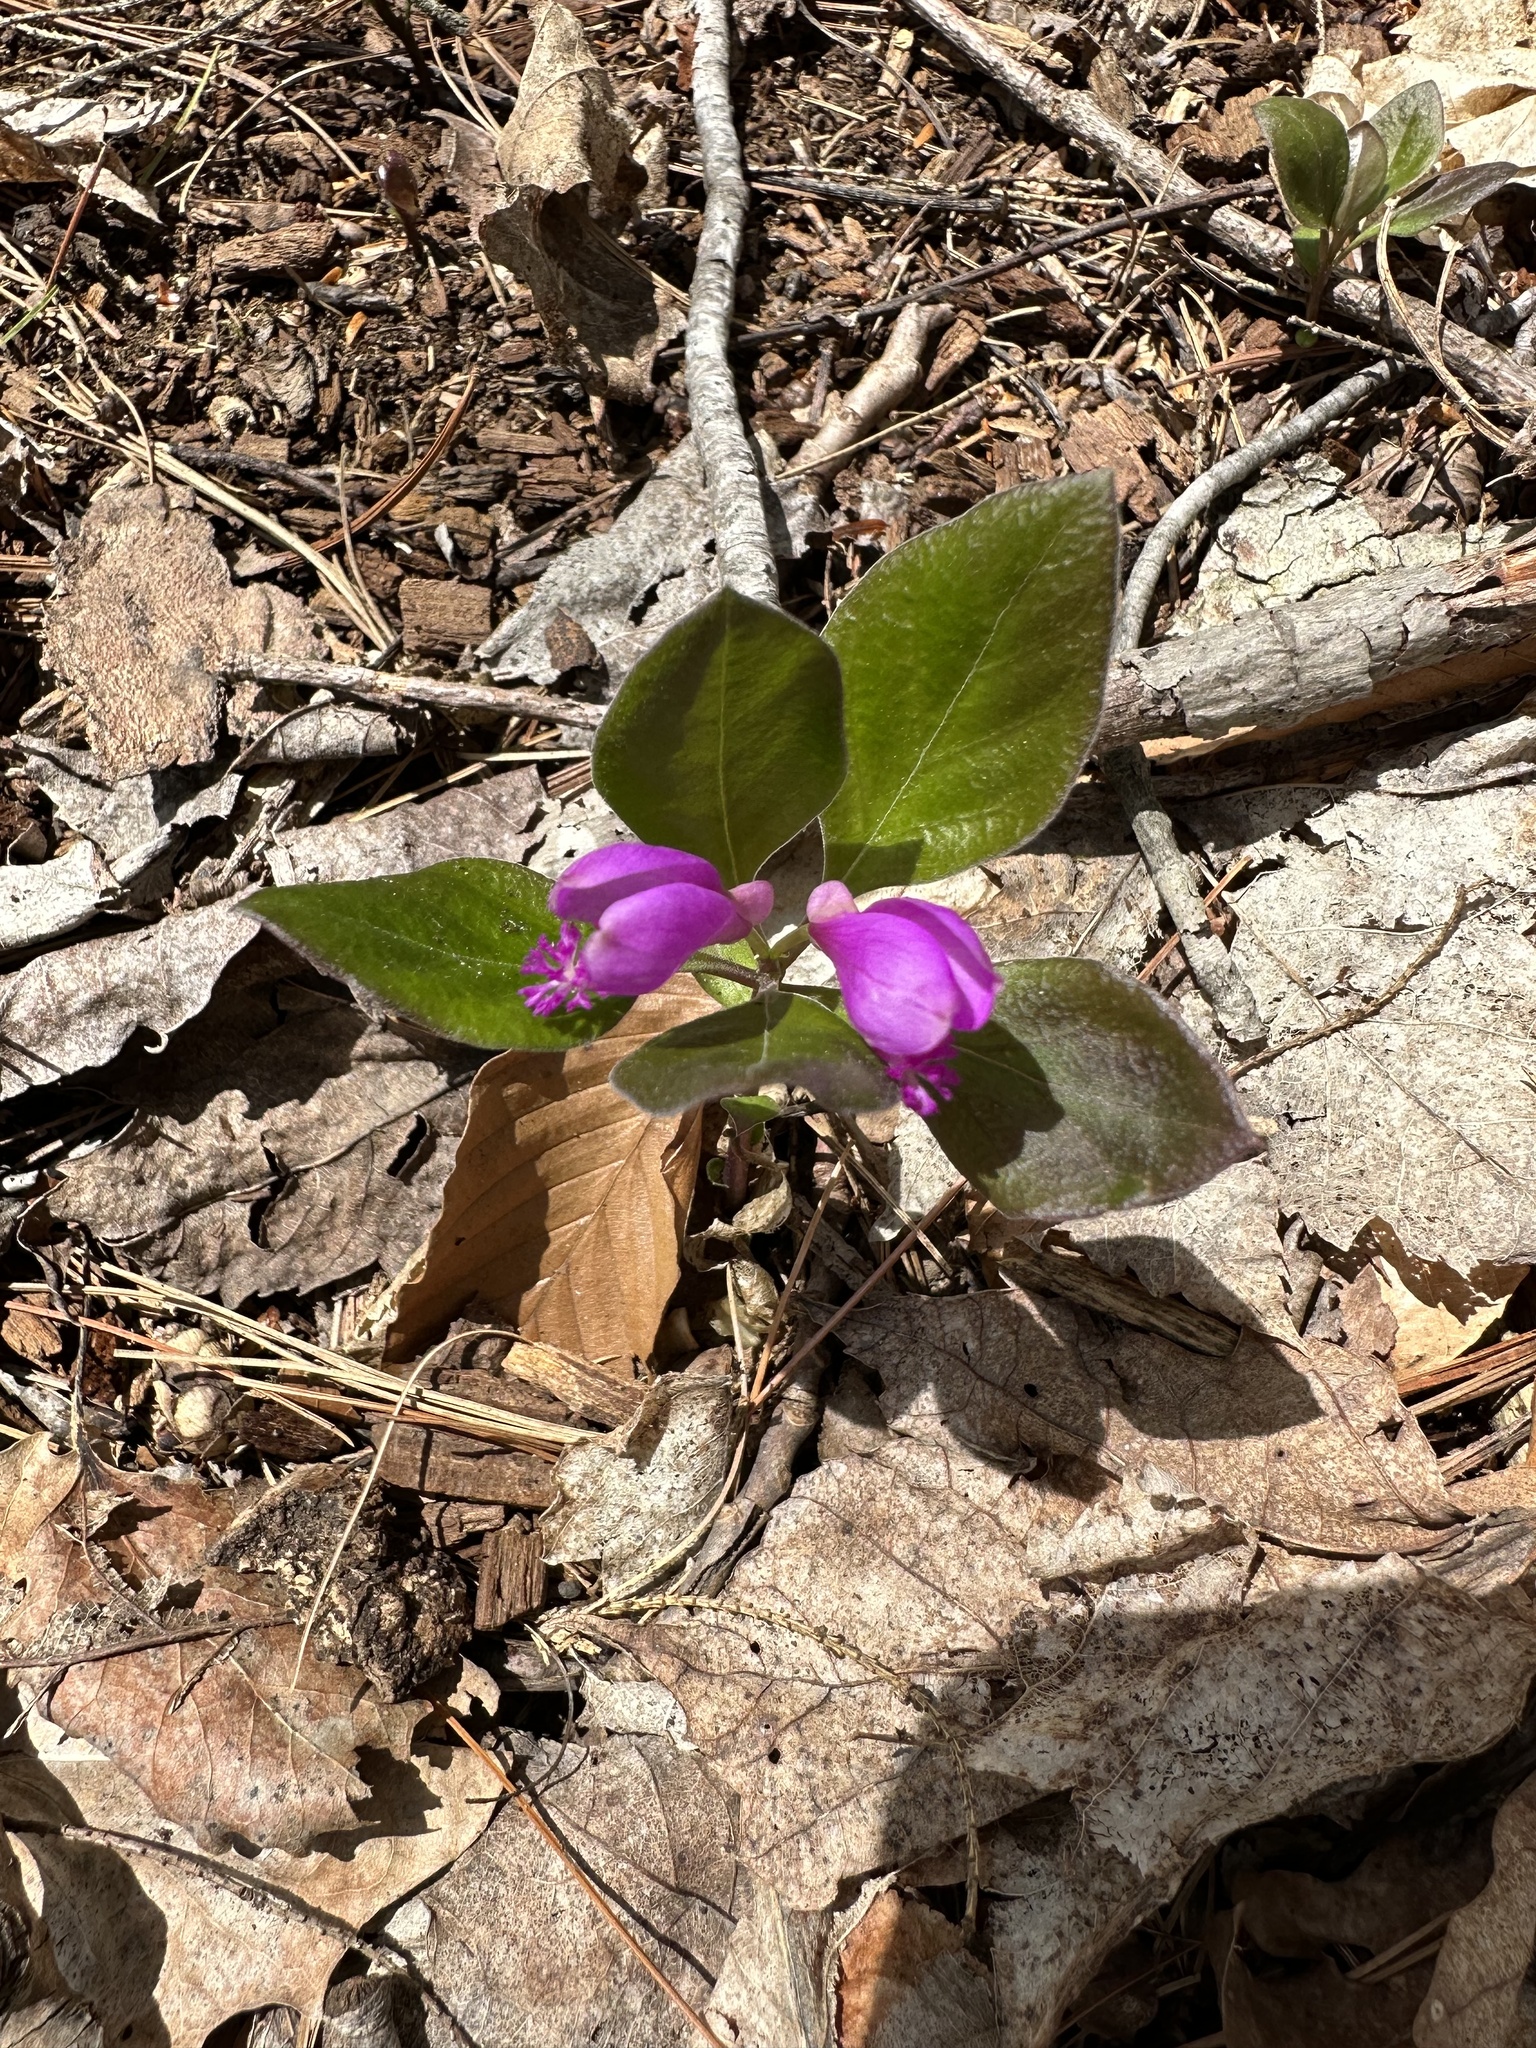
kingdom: Plantae
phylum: Tracheophyta
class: Magnoliopsida
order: Fabales
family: Polygalaceae
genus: Polygaloides
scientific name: Polygaloides paucifolia
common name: Bird-on-the-wing
